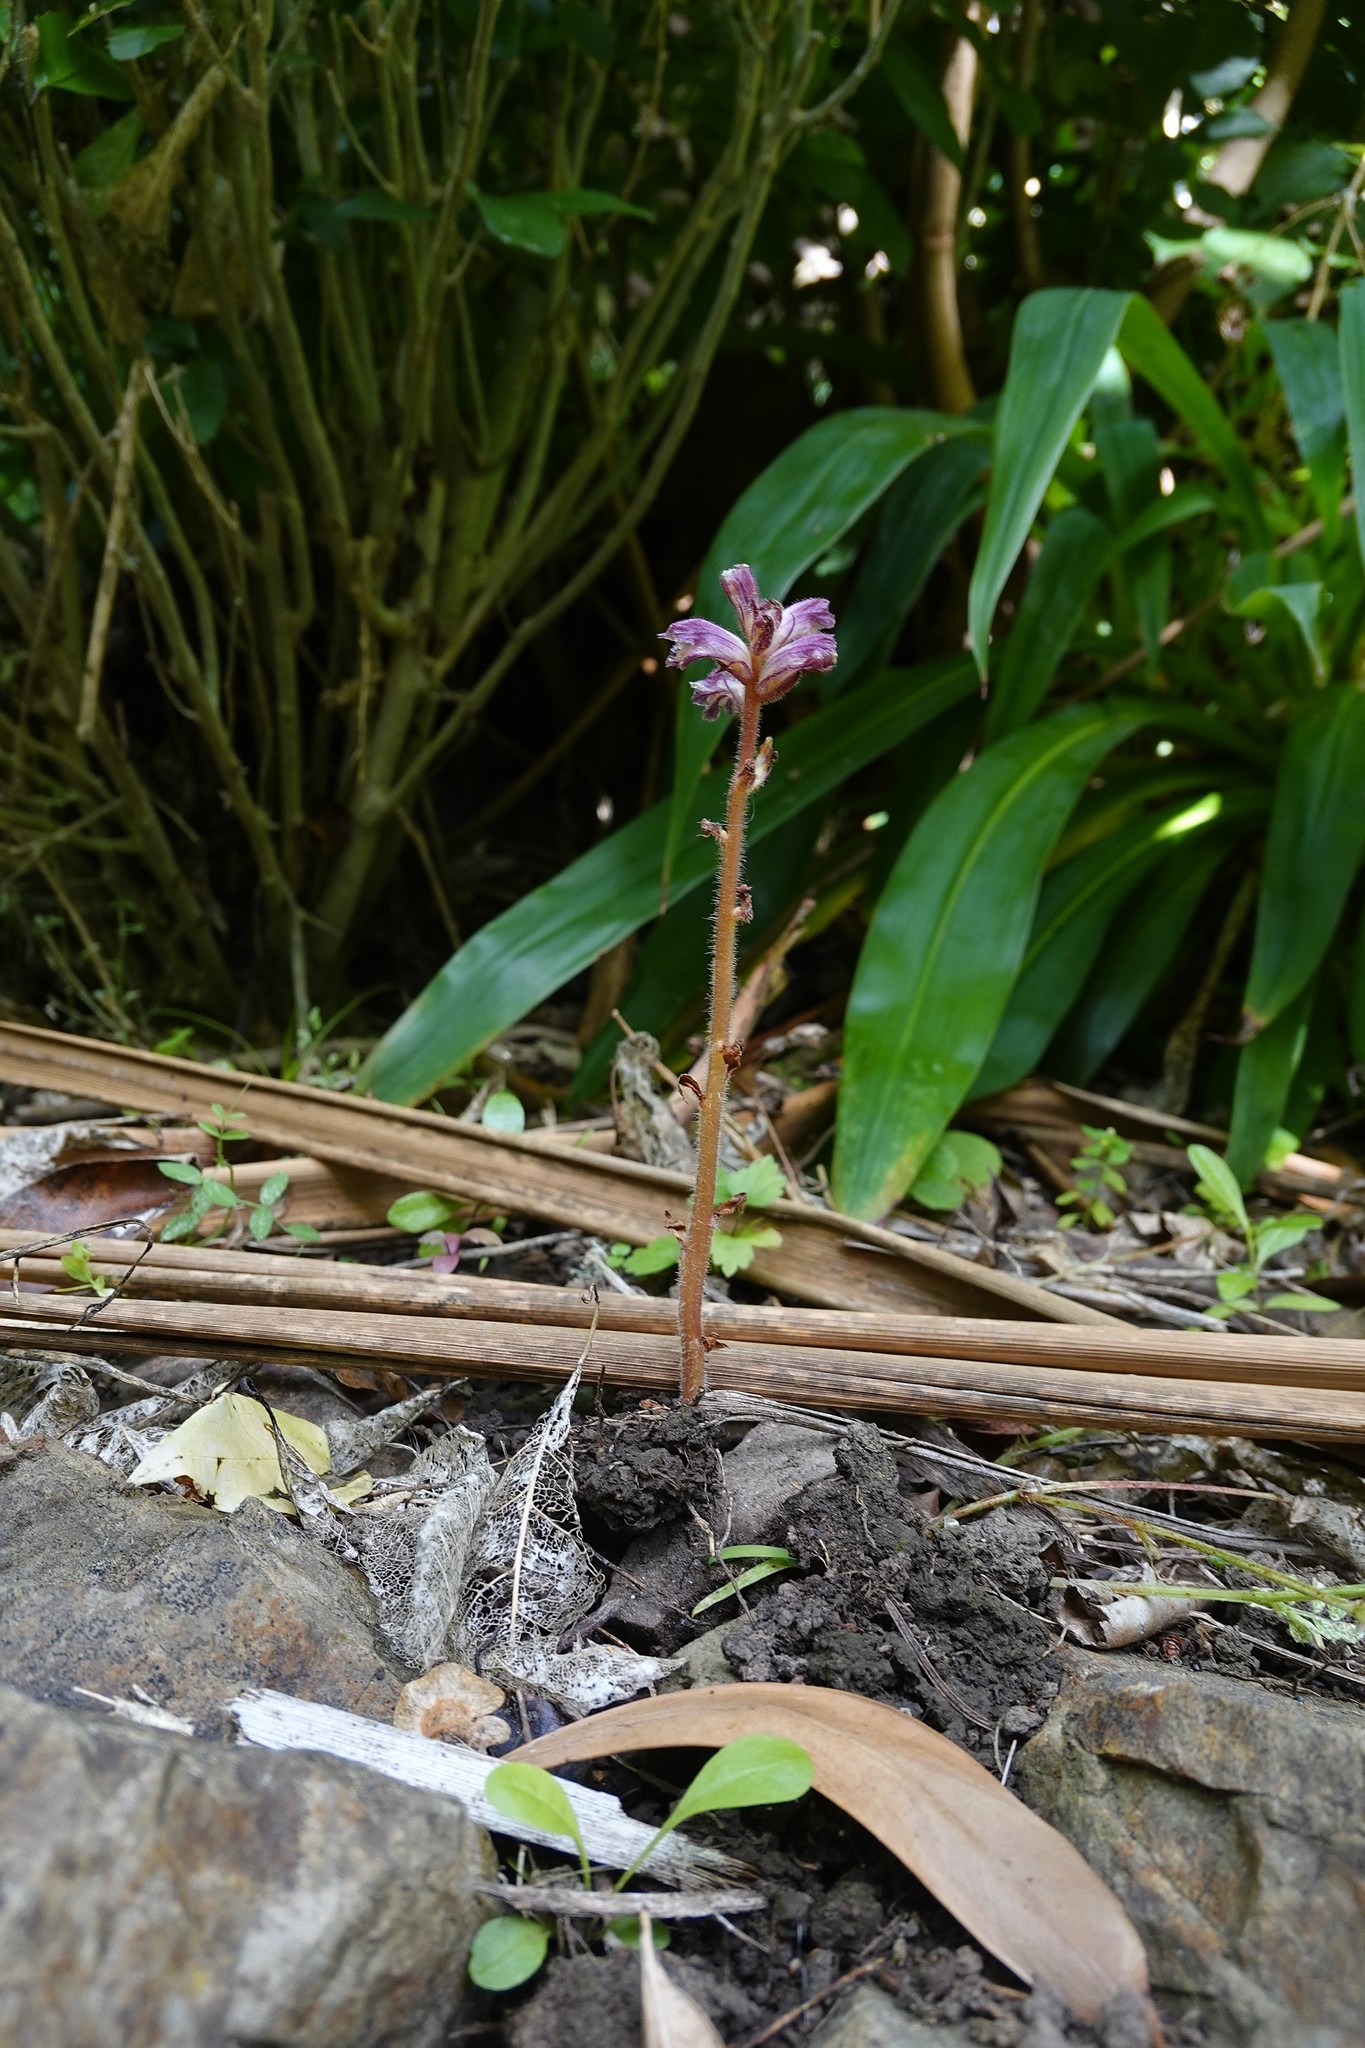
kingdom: Plantae
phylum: Tracheophyta
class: Magnoliopsida
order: Lamiales
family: Orobanchaceae
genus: Orobanche
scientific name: Orobanche minor
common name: Common broomrape
